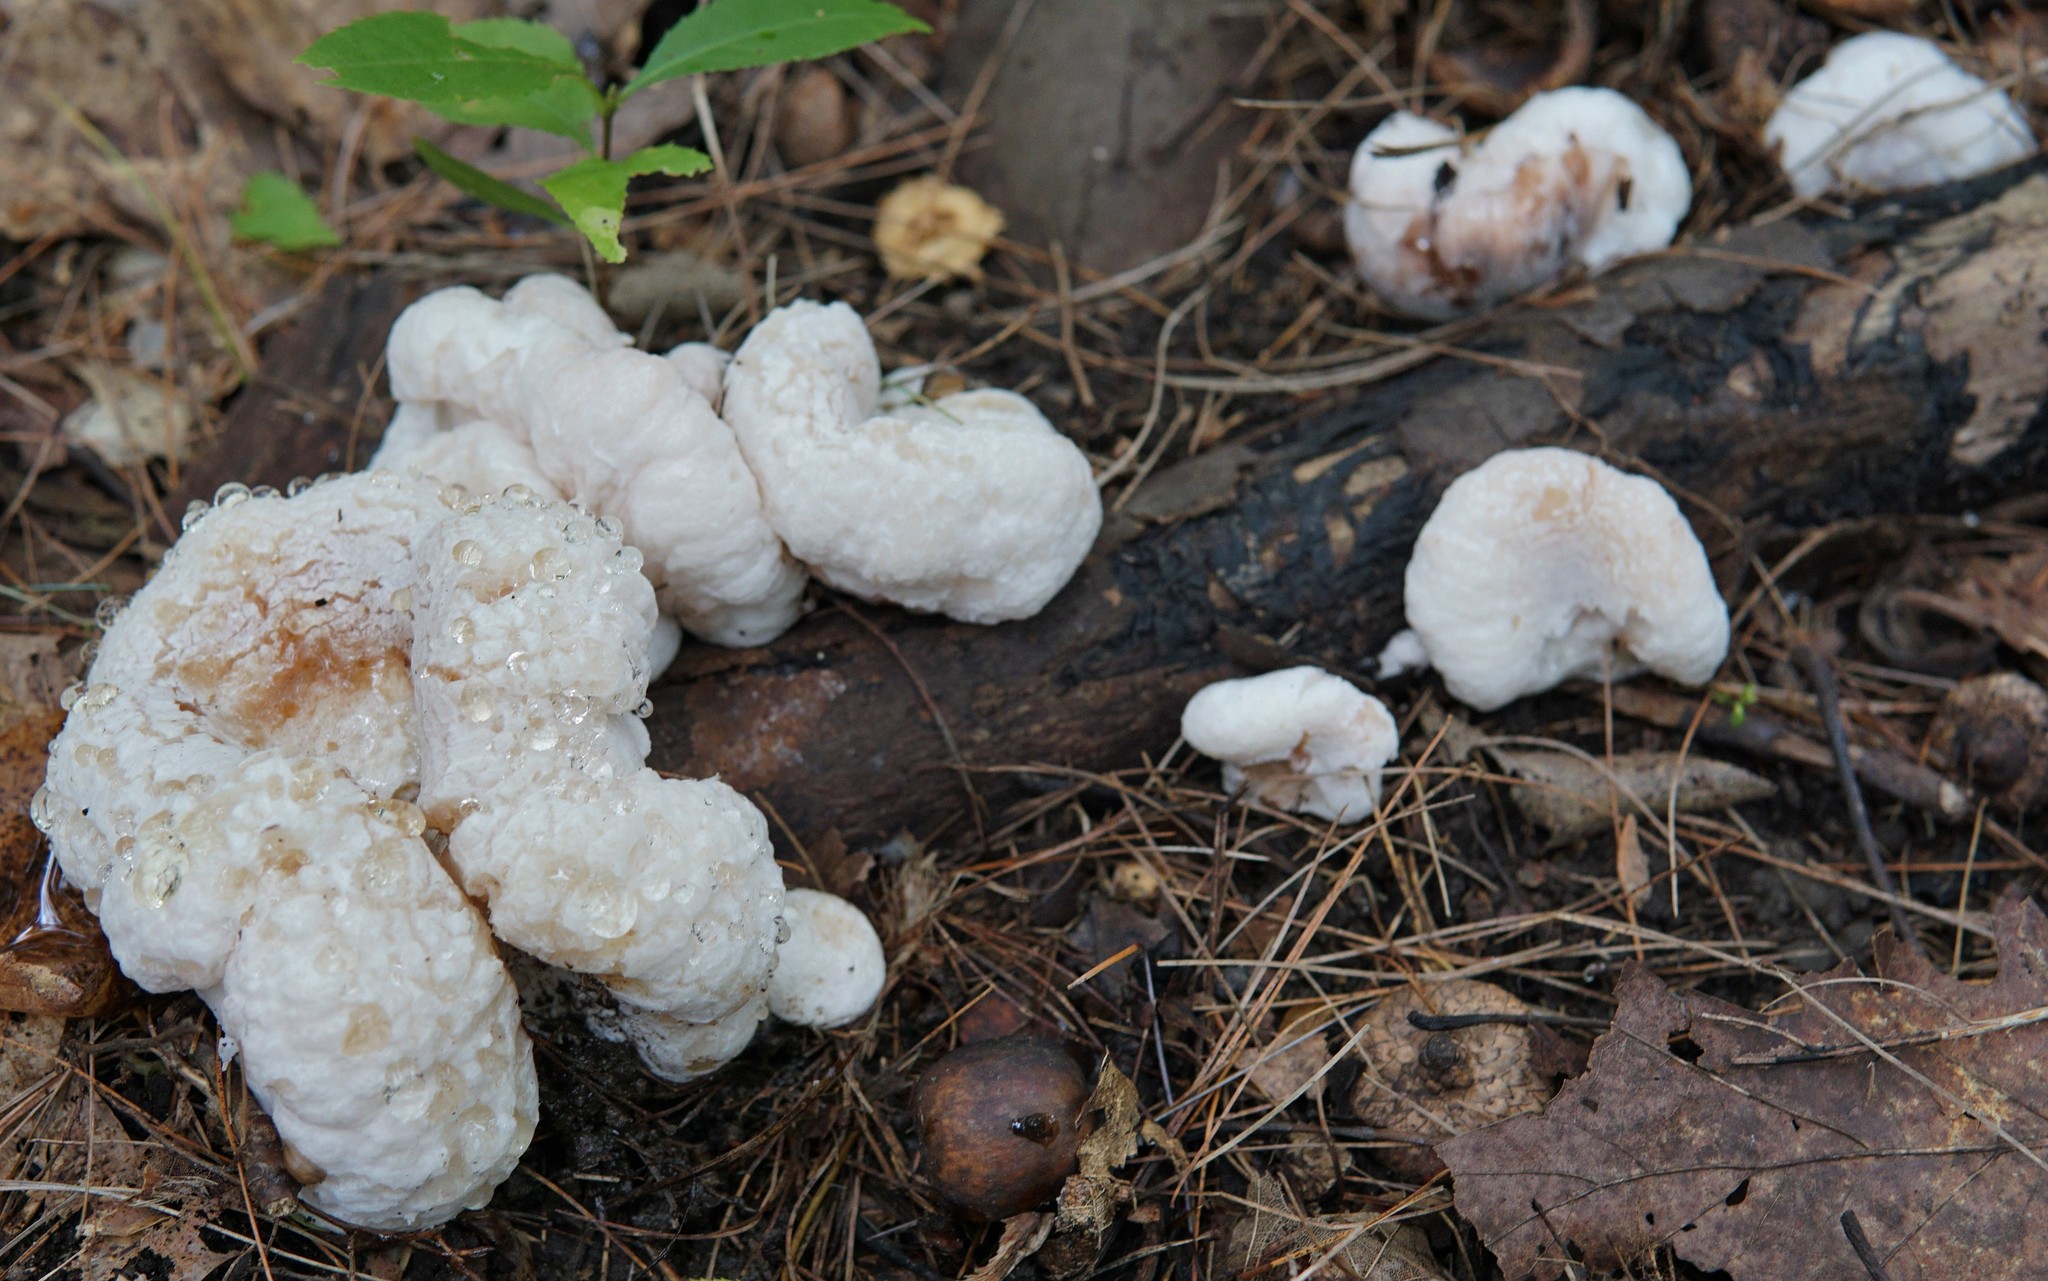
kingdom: Fungi
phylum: Basidiomycota
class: Agaricomycetes
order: Agaricales
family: Entolomataceae
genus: Entoloma
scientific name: Entoloma abortivum
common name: Aborted entoloma
